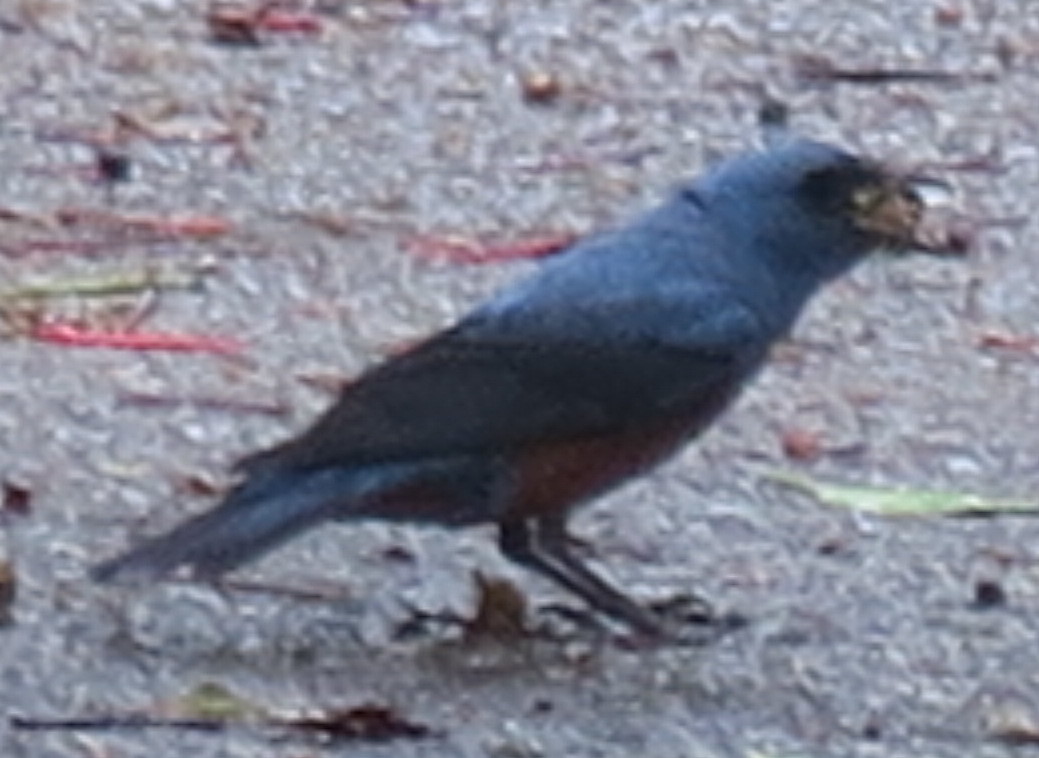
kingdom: Animalia
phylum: Chordata
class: Aves
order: Passeriformes
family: Muscicapidae
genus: Monticola
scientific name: Monticola solitarius
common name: Blue rock thrush
